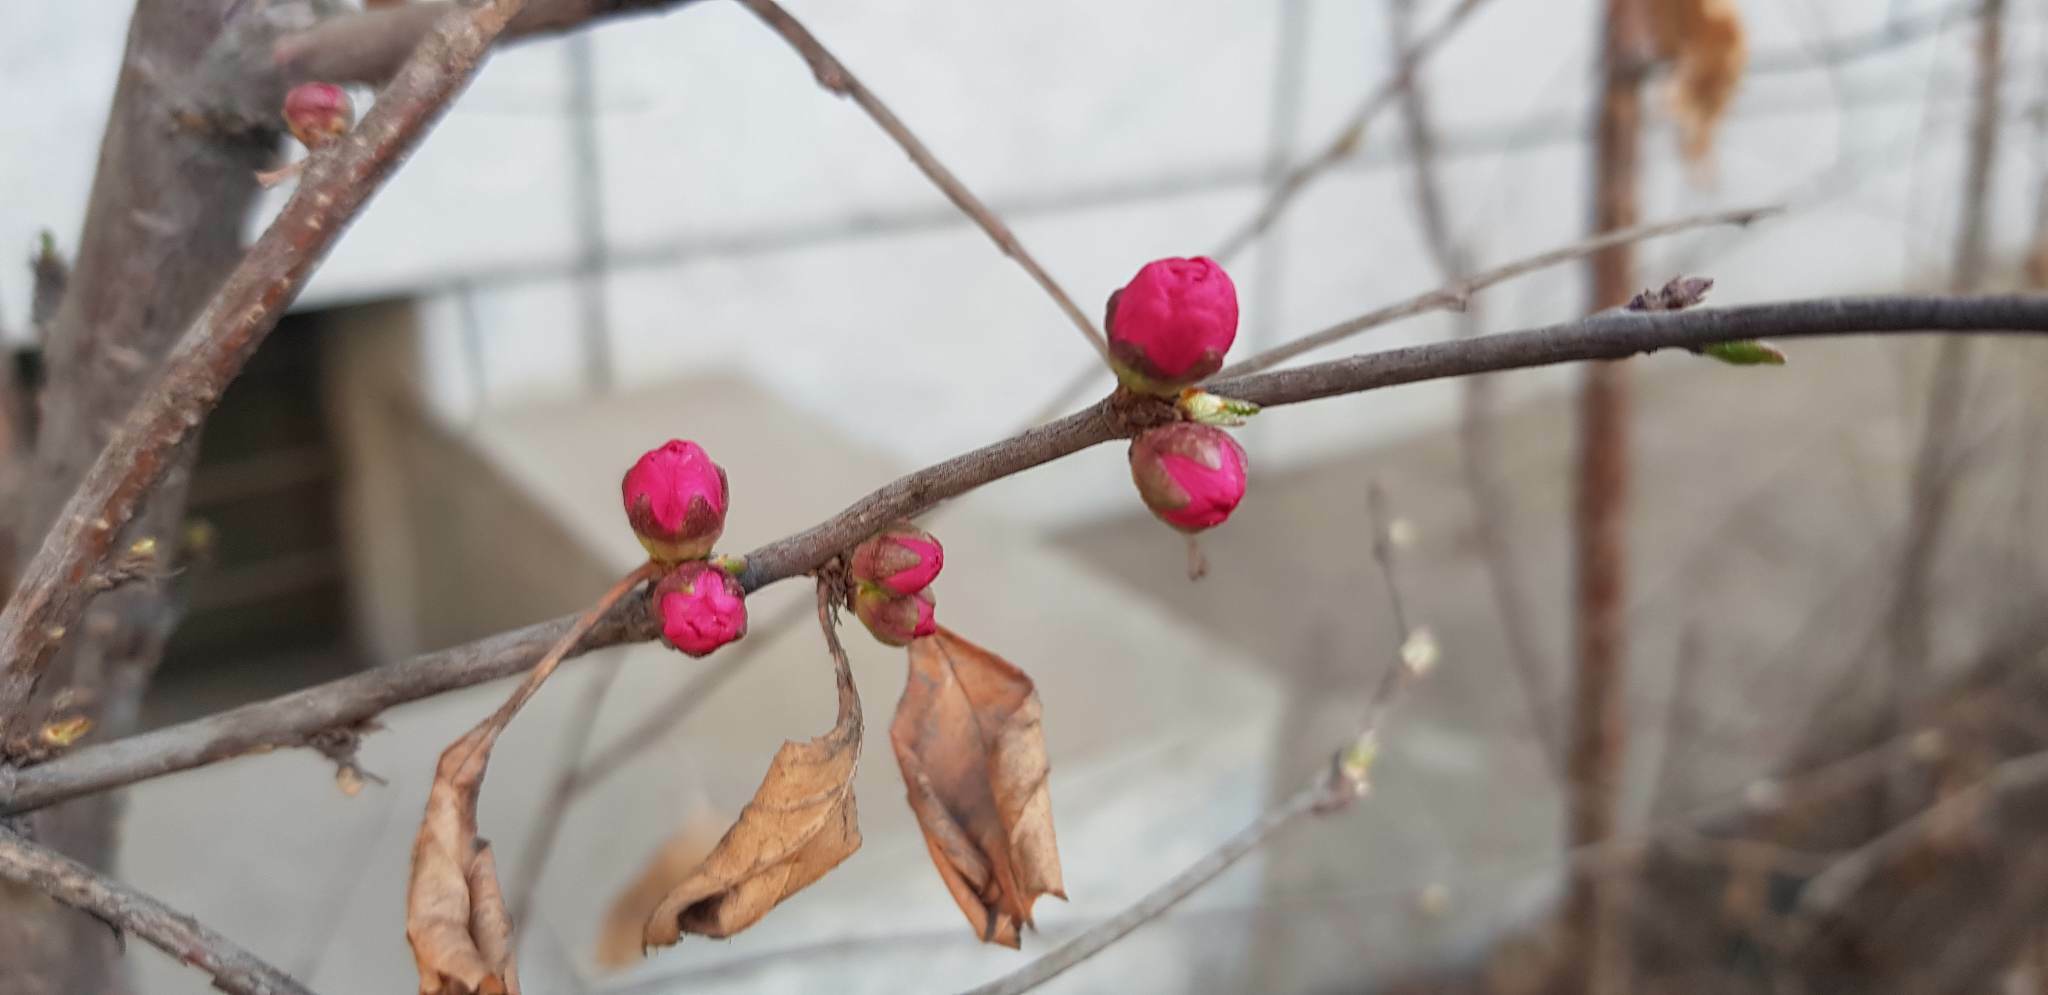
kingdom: Plantae
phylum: Tracheophyta
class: Magnoliopsida
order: Rosales
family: Rosaceae
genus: Prunus
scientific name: Prunus virginiana
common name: Chokecherry
